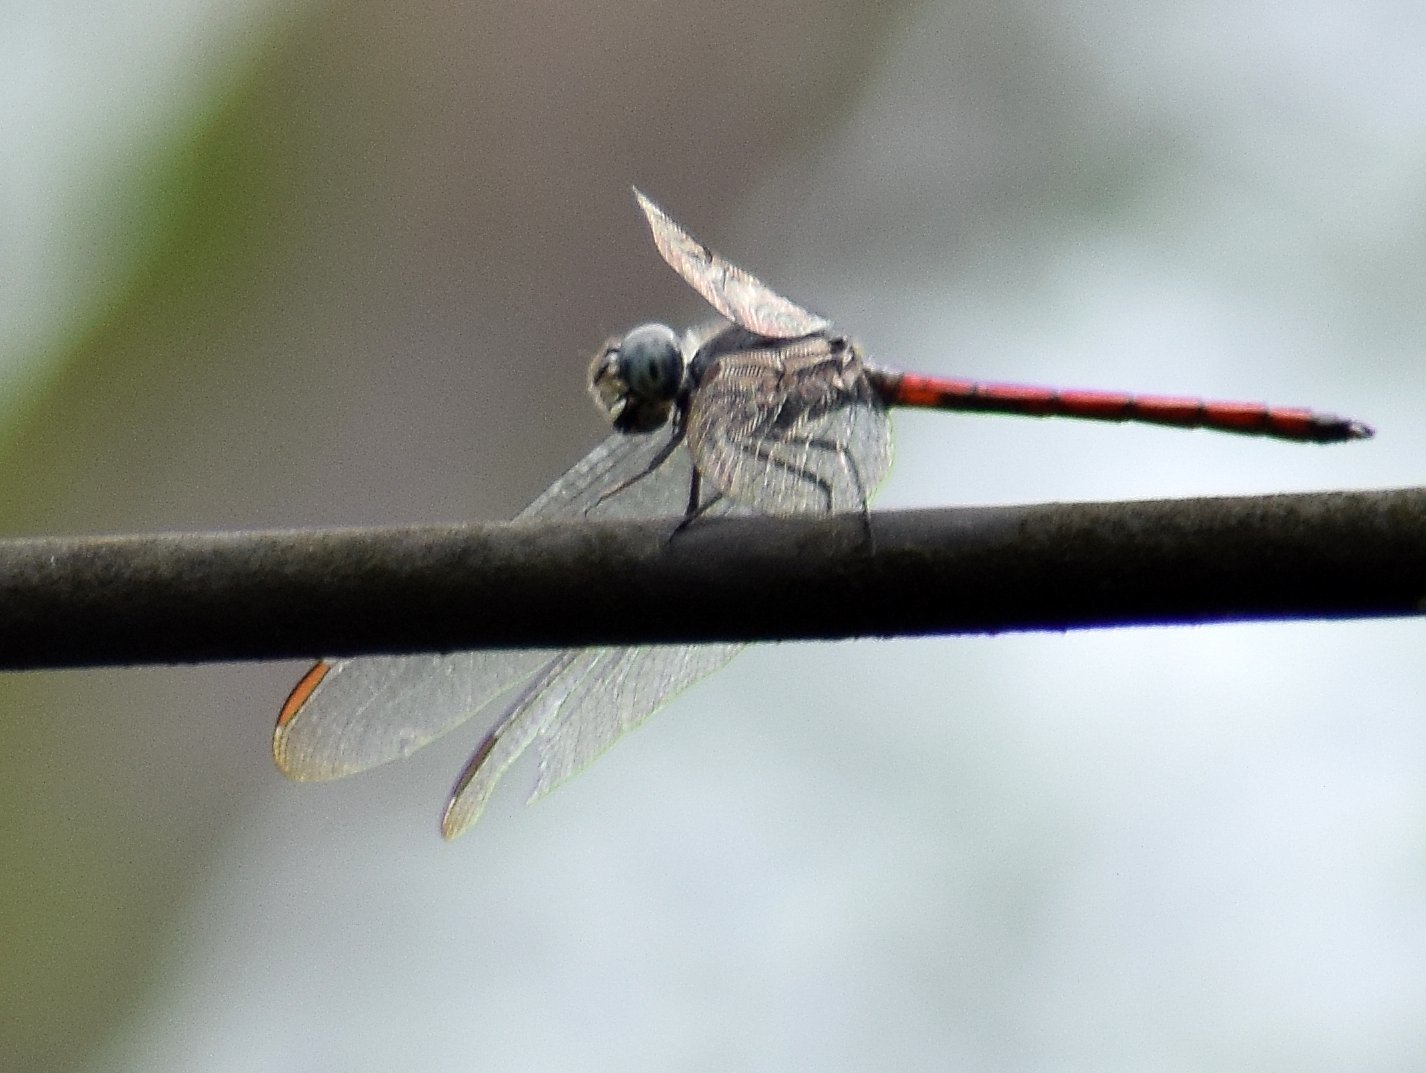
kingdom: Animalia
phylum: Arthropoda
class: Insecta
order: Odonata
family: Libellulidae
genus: Lathrecista
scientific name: Lathrecista asiatica
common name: Scarlet grenadier
